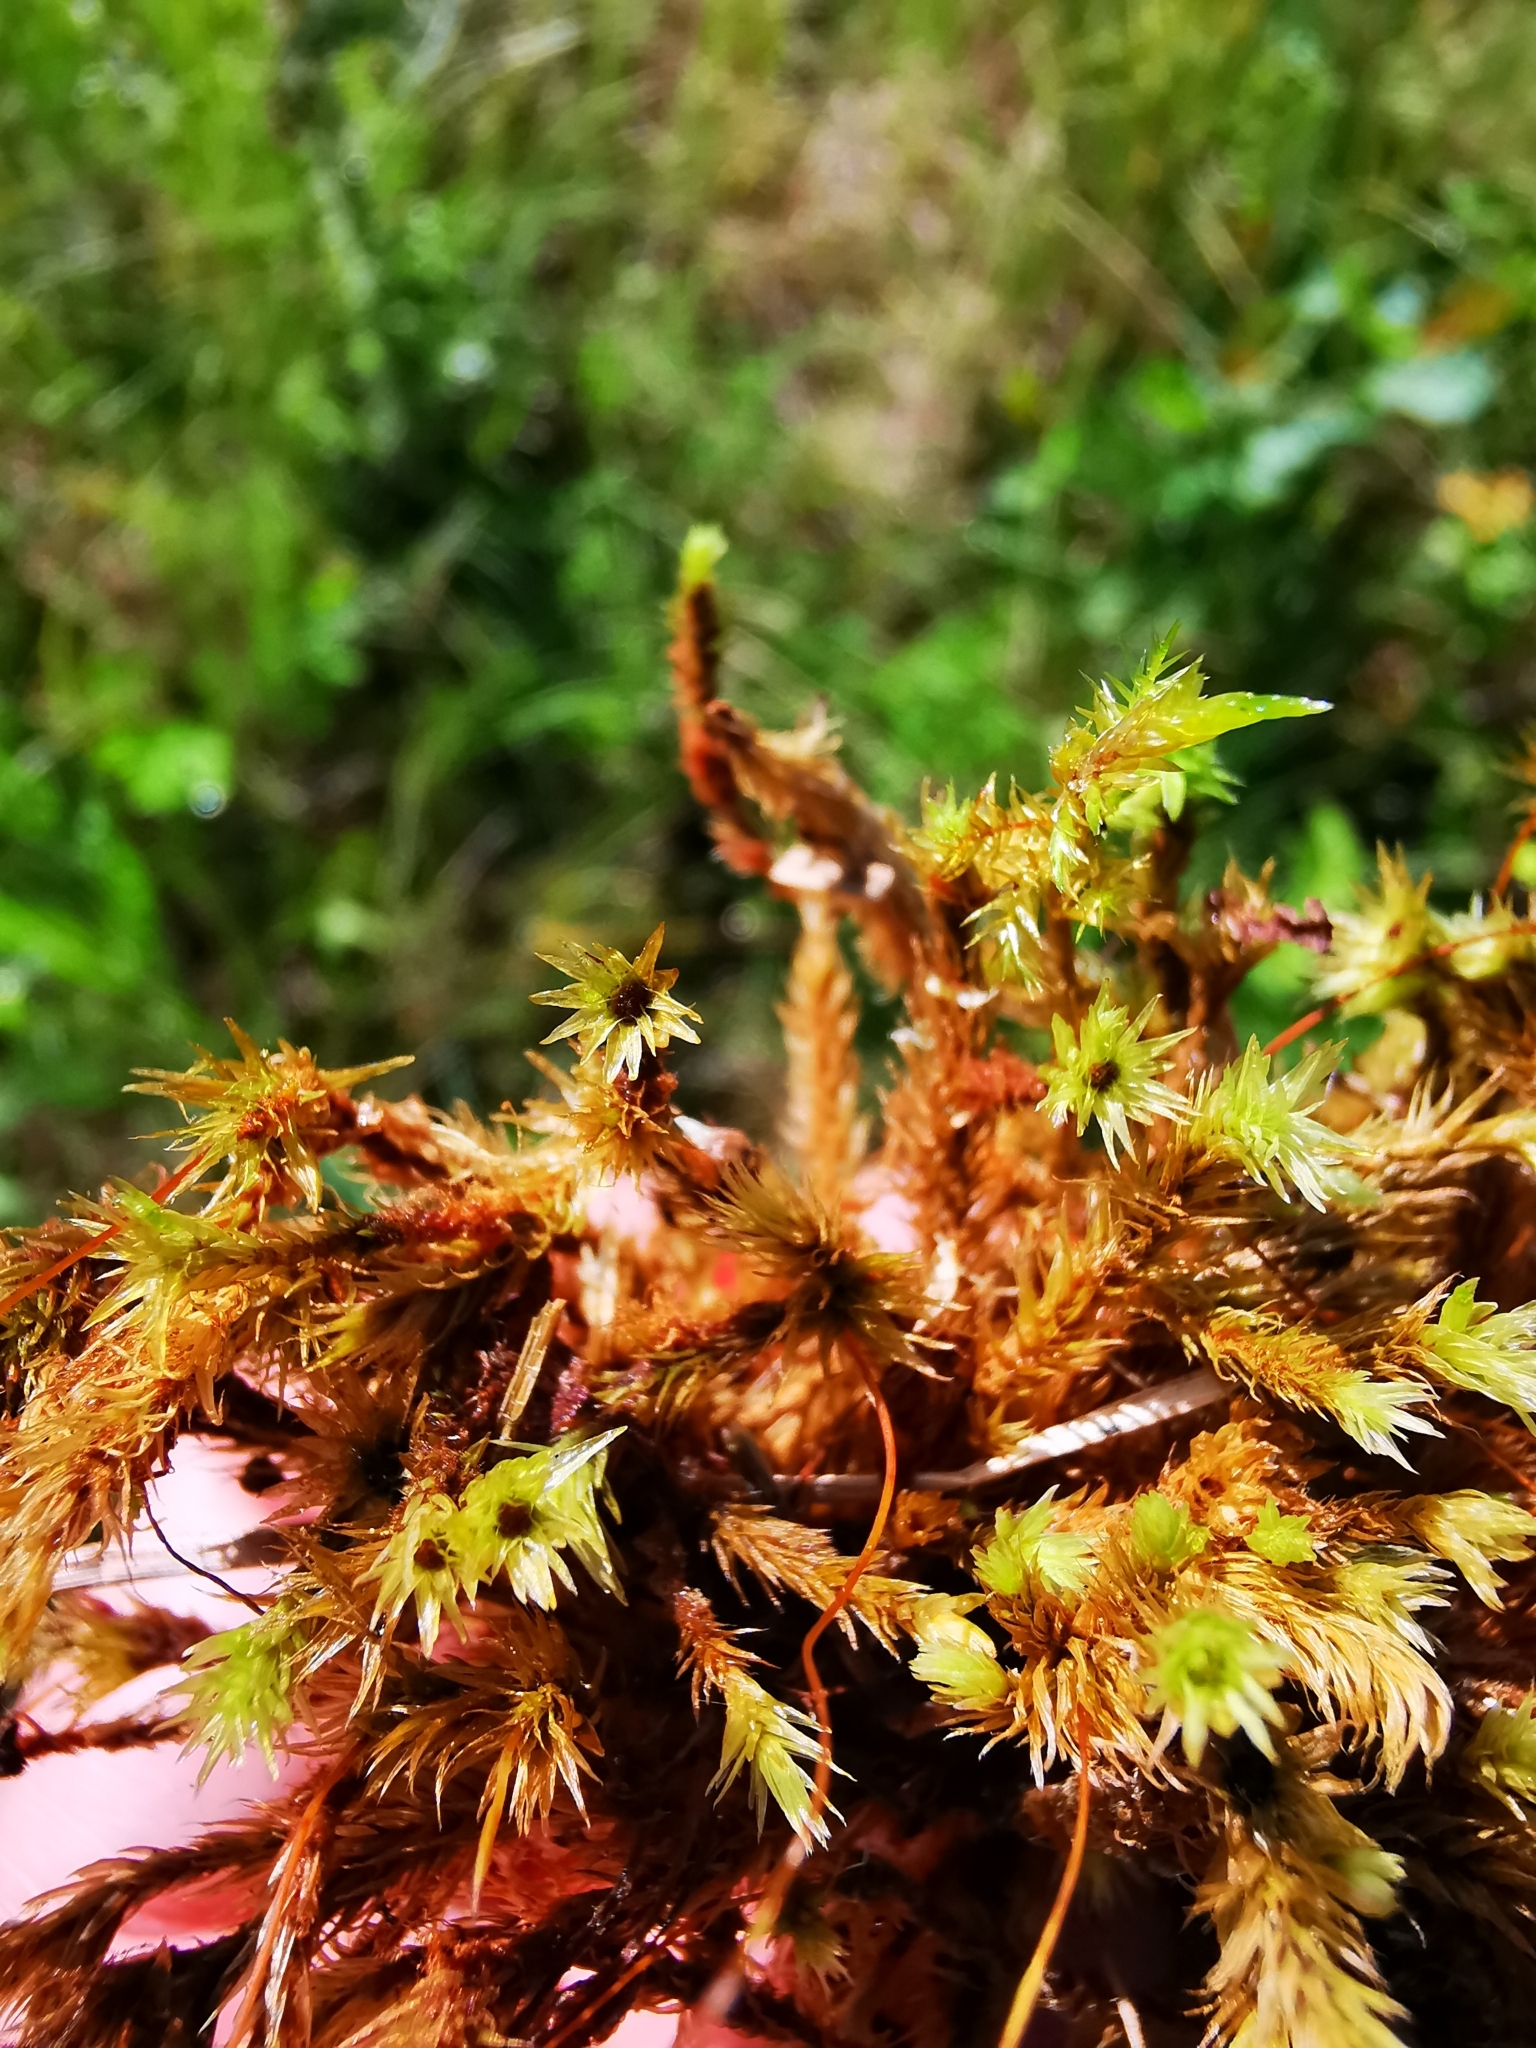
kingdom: Plantae
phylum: Bryophyta
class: Bryopsida
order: Aulacomniales
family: Aulacomniaceae
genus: Aulacomnium
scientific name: Aulacomnium palustre
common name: Bog groove-moss
